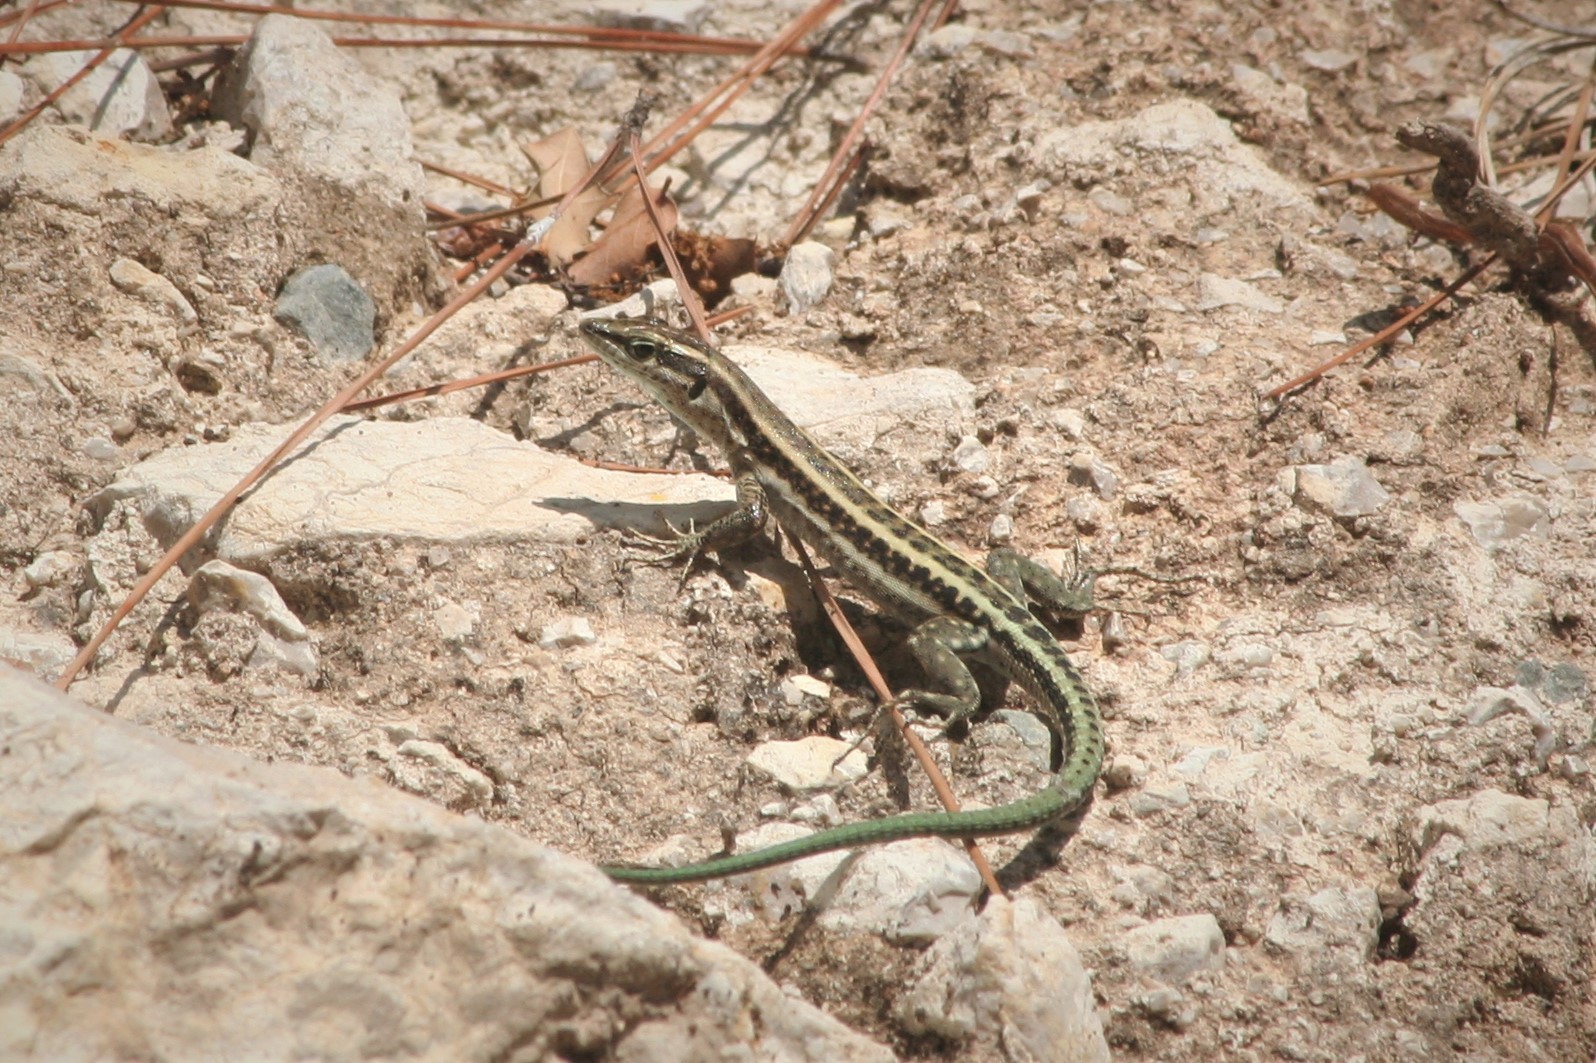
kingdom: Animalia
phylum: Chordata
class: Squamata
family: Lacertidae
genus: Anatololacerta
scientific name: Anatololacerta finikensis
